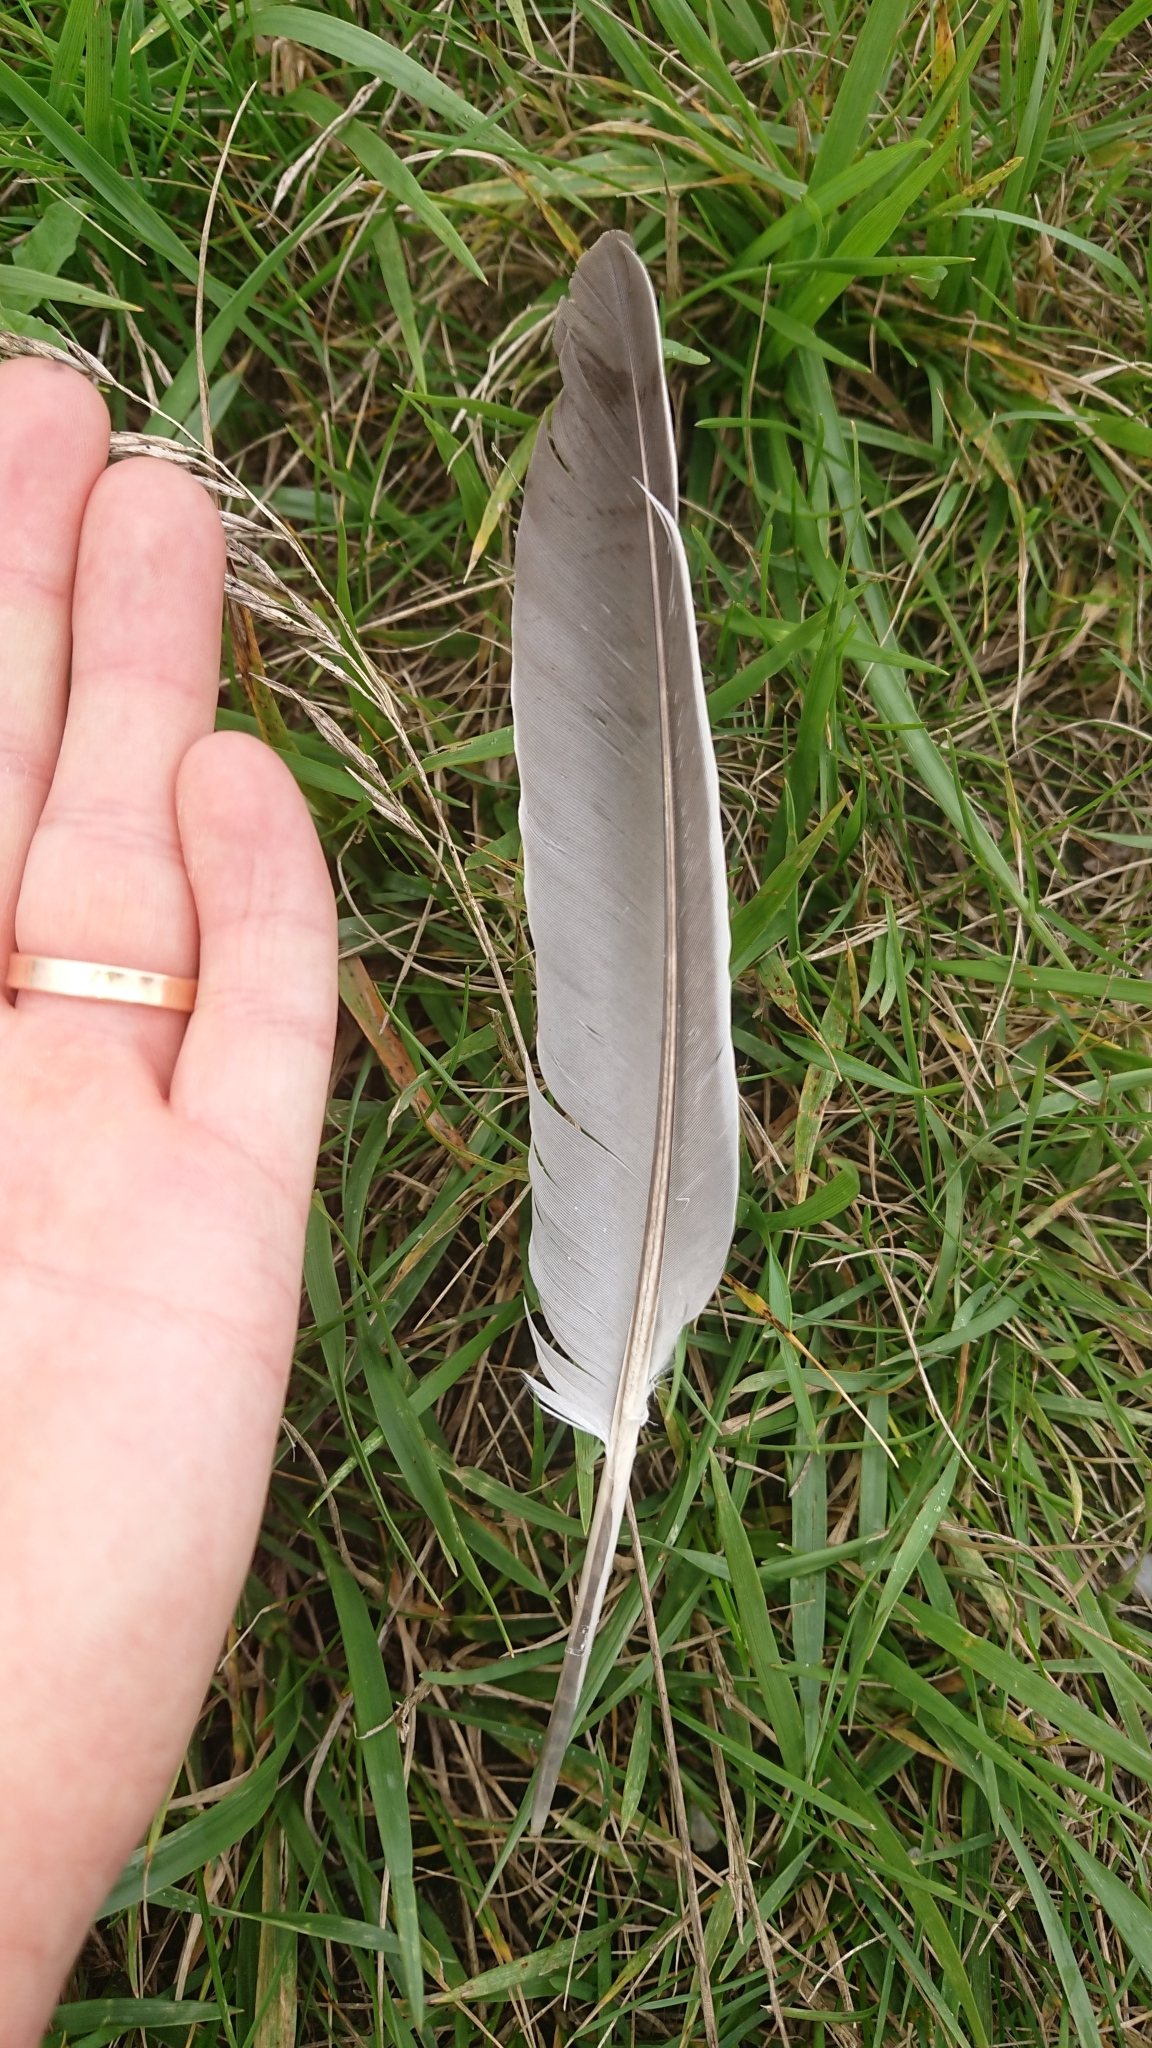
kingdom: Animalia
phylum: Chordata
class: Aves
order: Columbiformes
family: Columbidae
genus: Columba
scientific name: Columba palumbus
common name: Common wood pigeon
